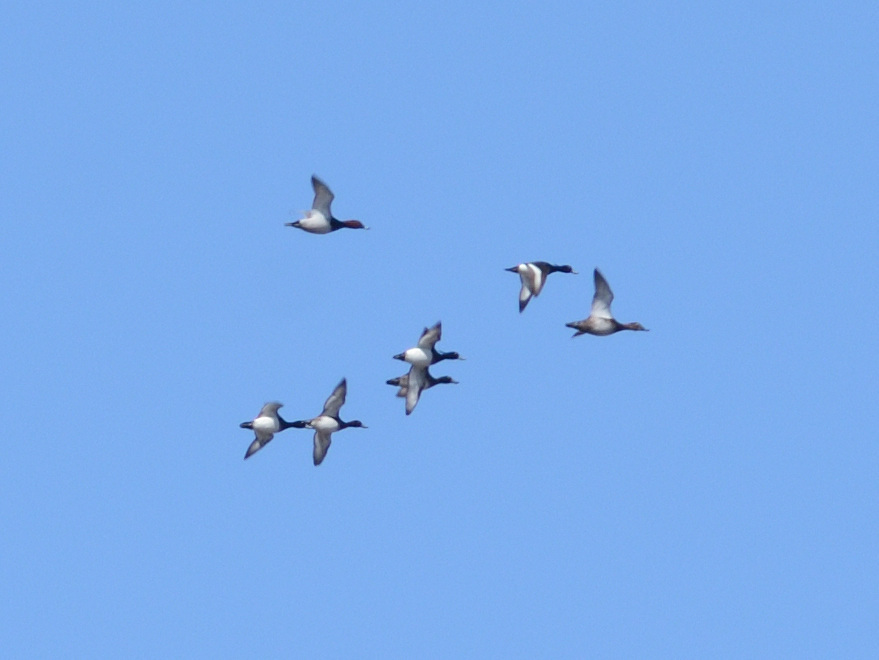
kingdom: Animalia
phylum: Chordata
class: Aves
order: Anseriformes
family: Anatidae
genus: Aythya
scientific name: Aythya fuligula
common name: Tufted duck
